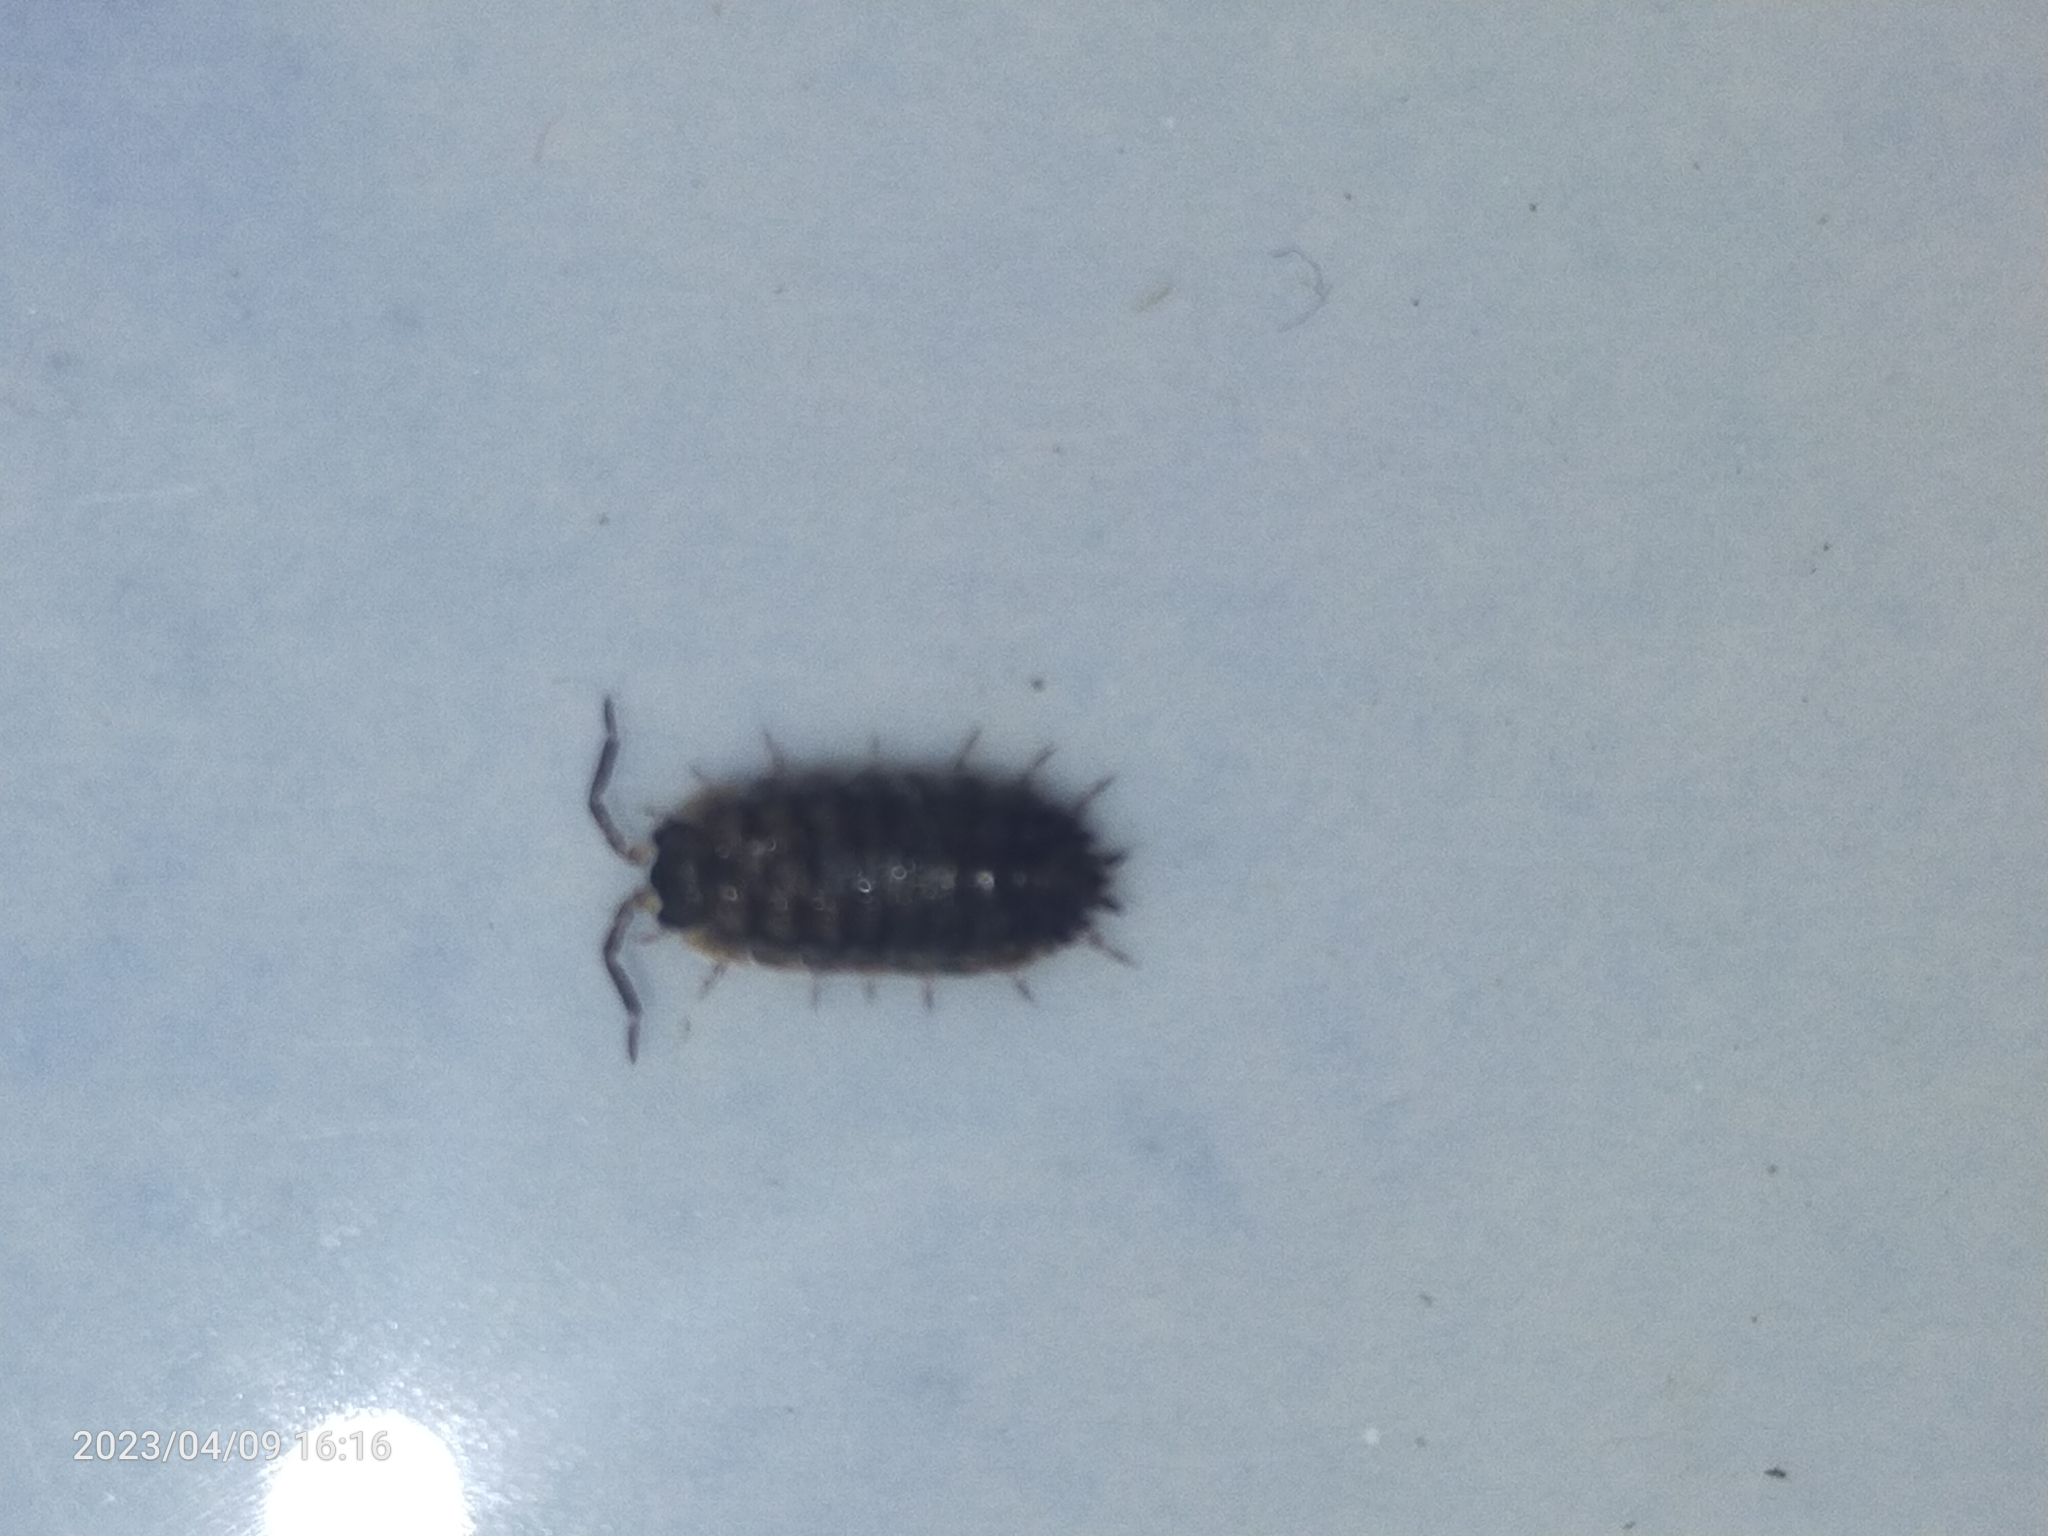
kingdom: Animalia
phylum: Arthropoda
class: Malacostraca
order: Isopoda
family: Porcellionidae
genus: Porcellio
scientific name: Porcellio scaber
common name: Common rough woodlouse
